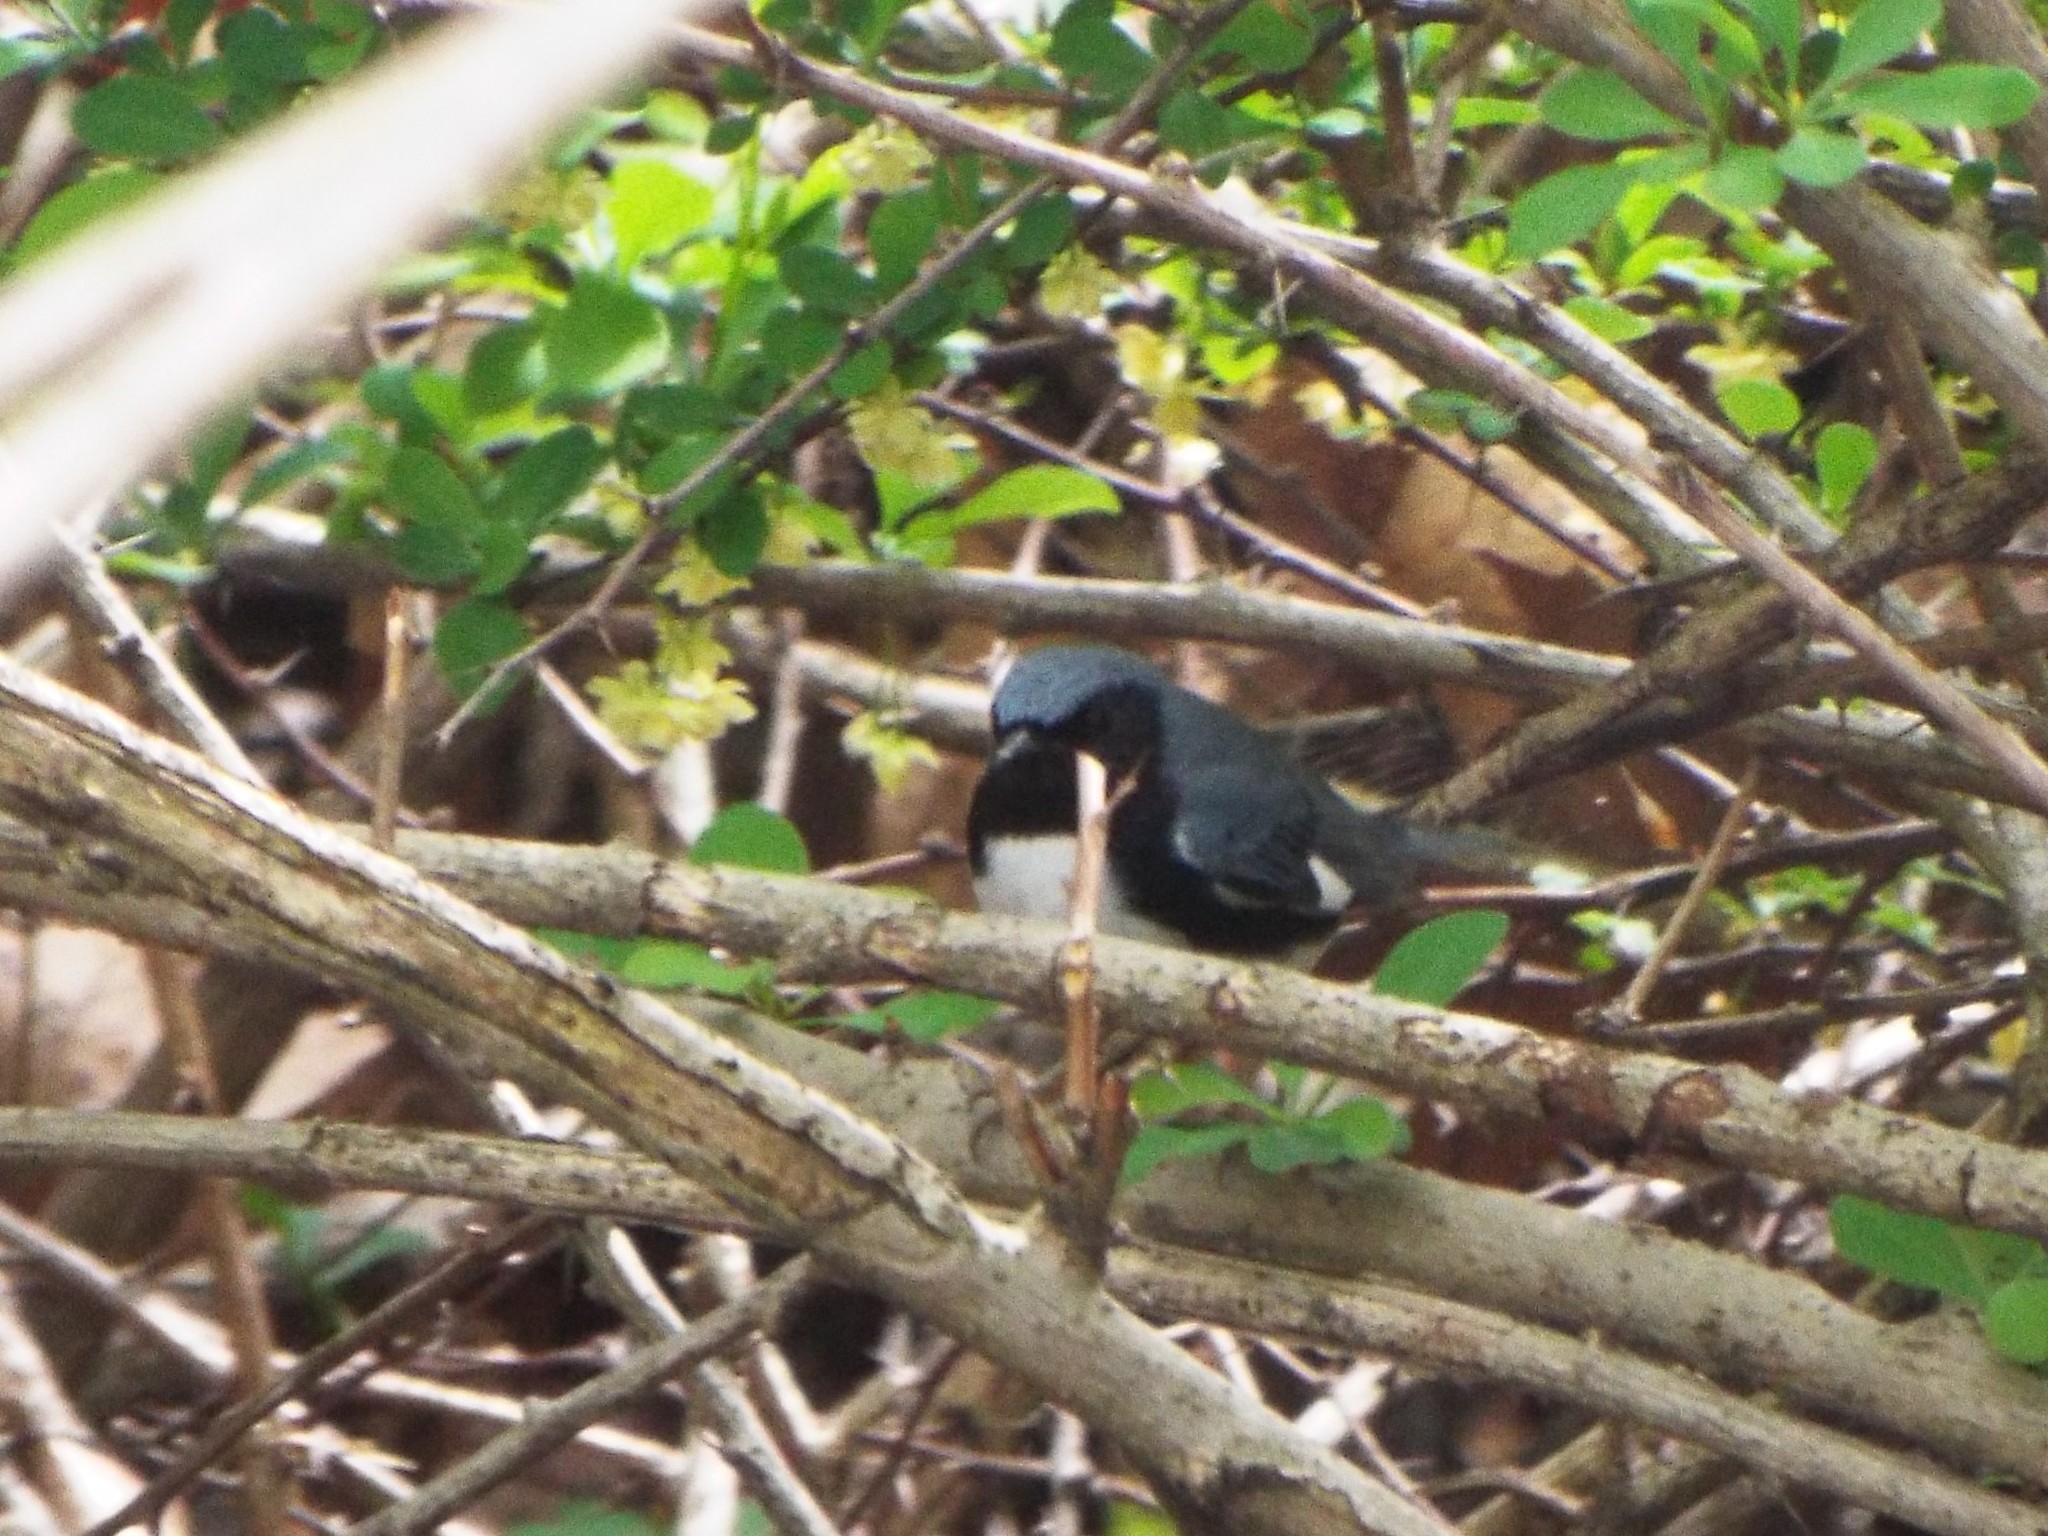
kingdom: Animalia
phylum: Chordata
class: Aves
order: Passeriformes
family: Parulidae
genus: Setophaga
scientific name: Setophaga caerulescens
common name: Black-throated blue warbler
